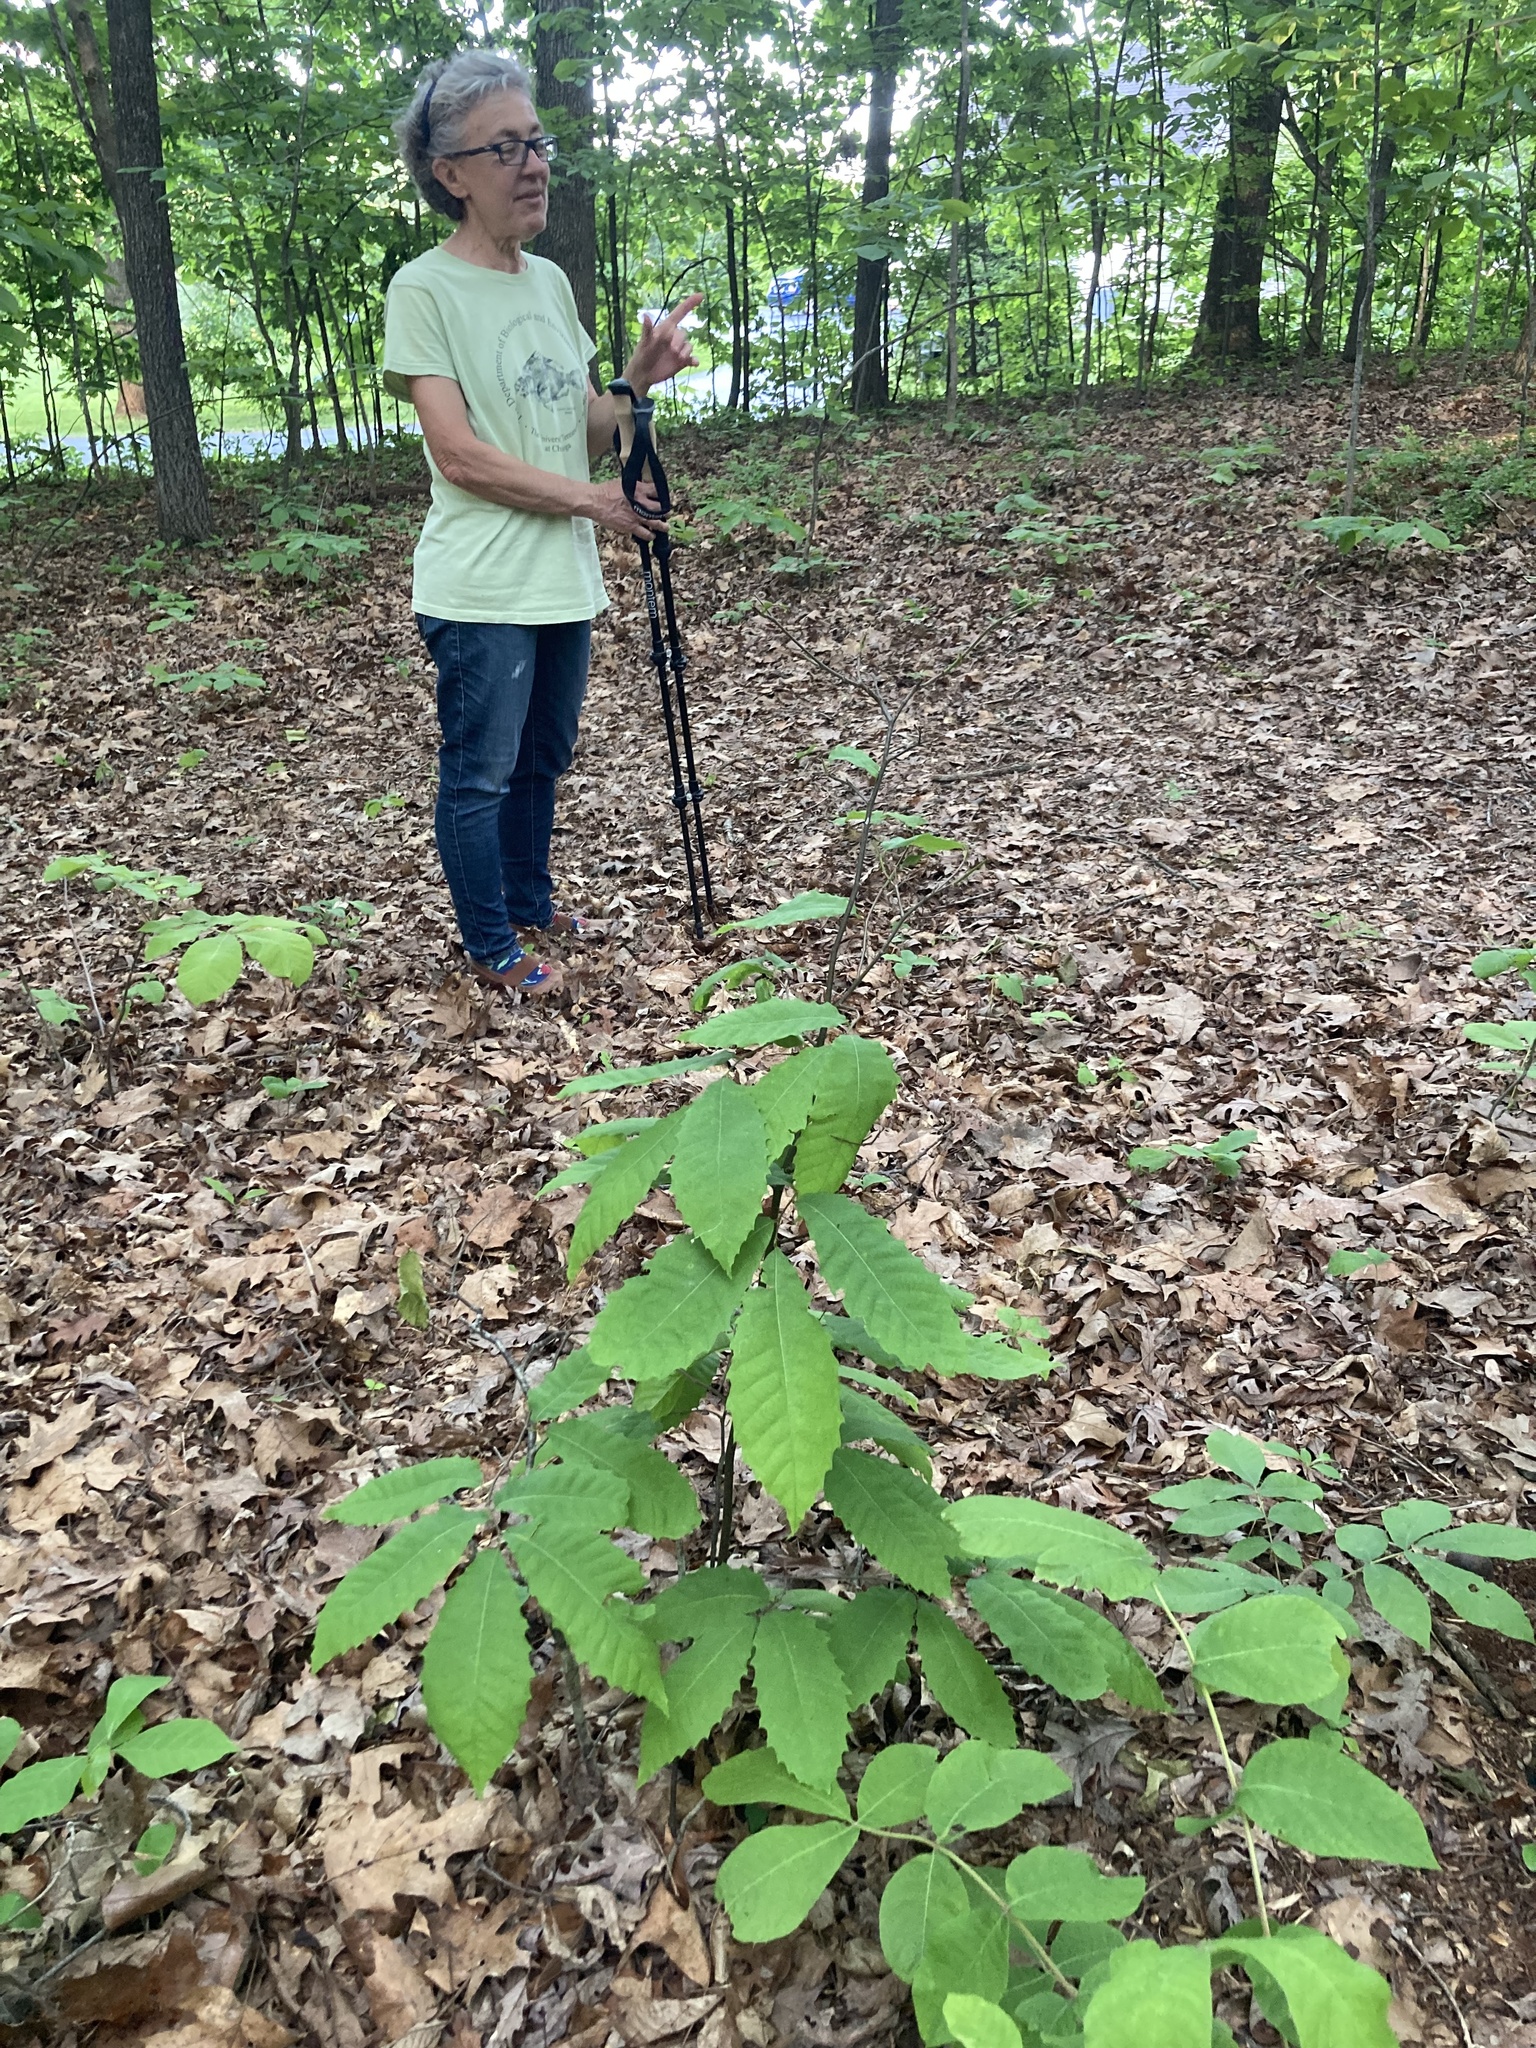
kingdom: Plantae
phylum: Tracheophyta
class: Magnoliopsida
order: Fagales
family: Fagaceae
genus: Castanea
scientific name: Castanea dentata
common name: American chestnut
